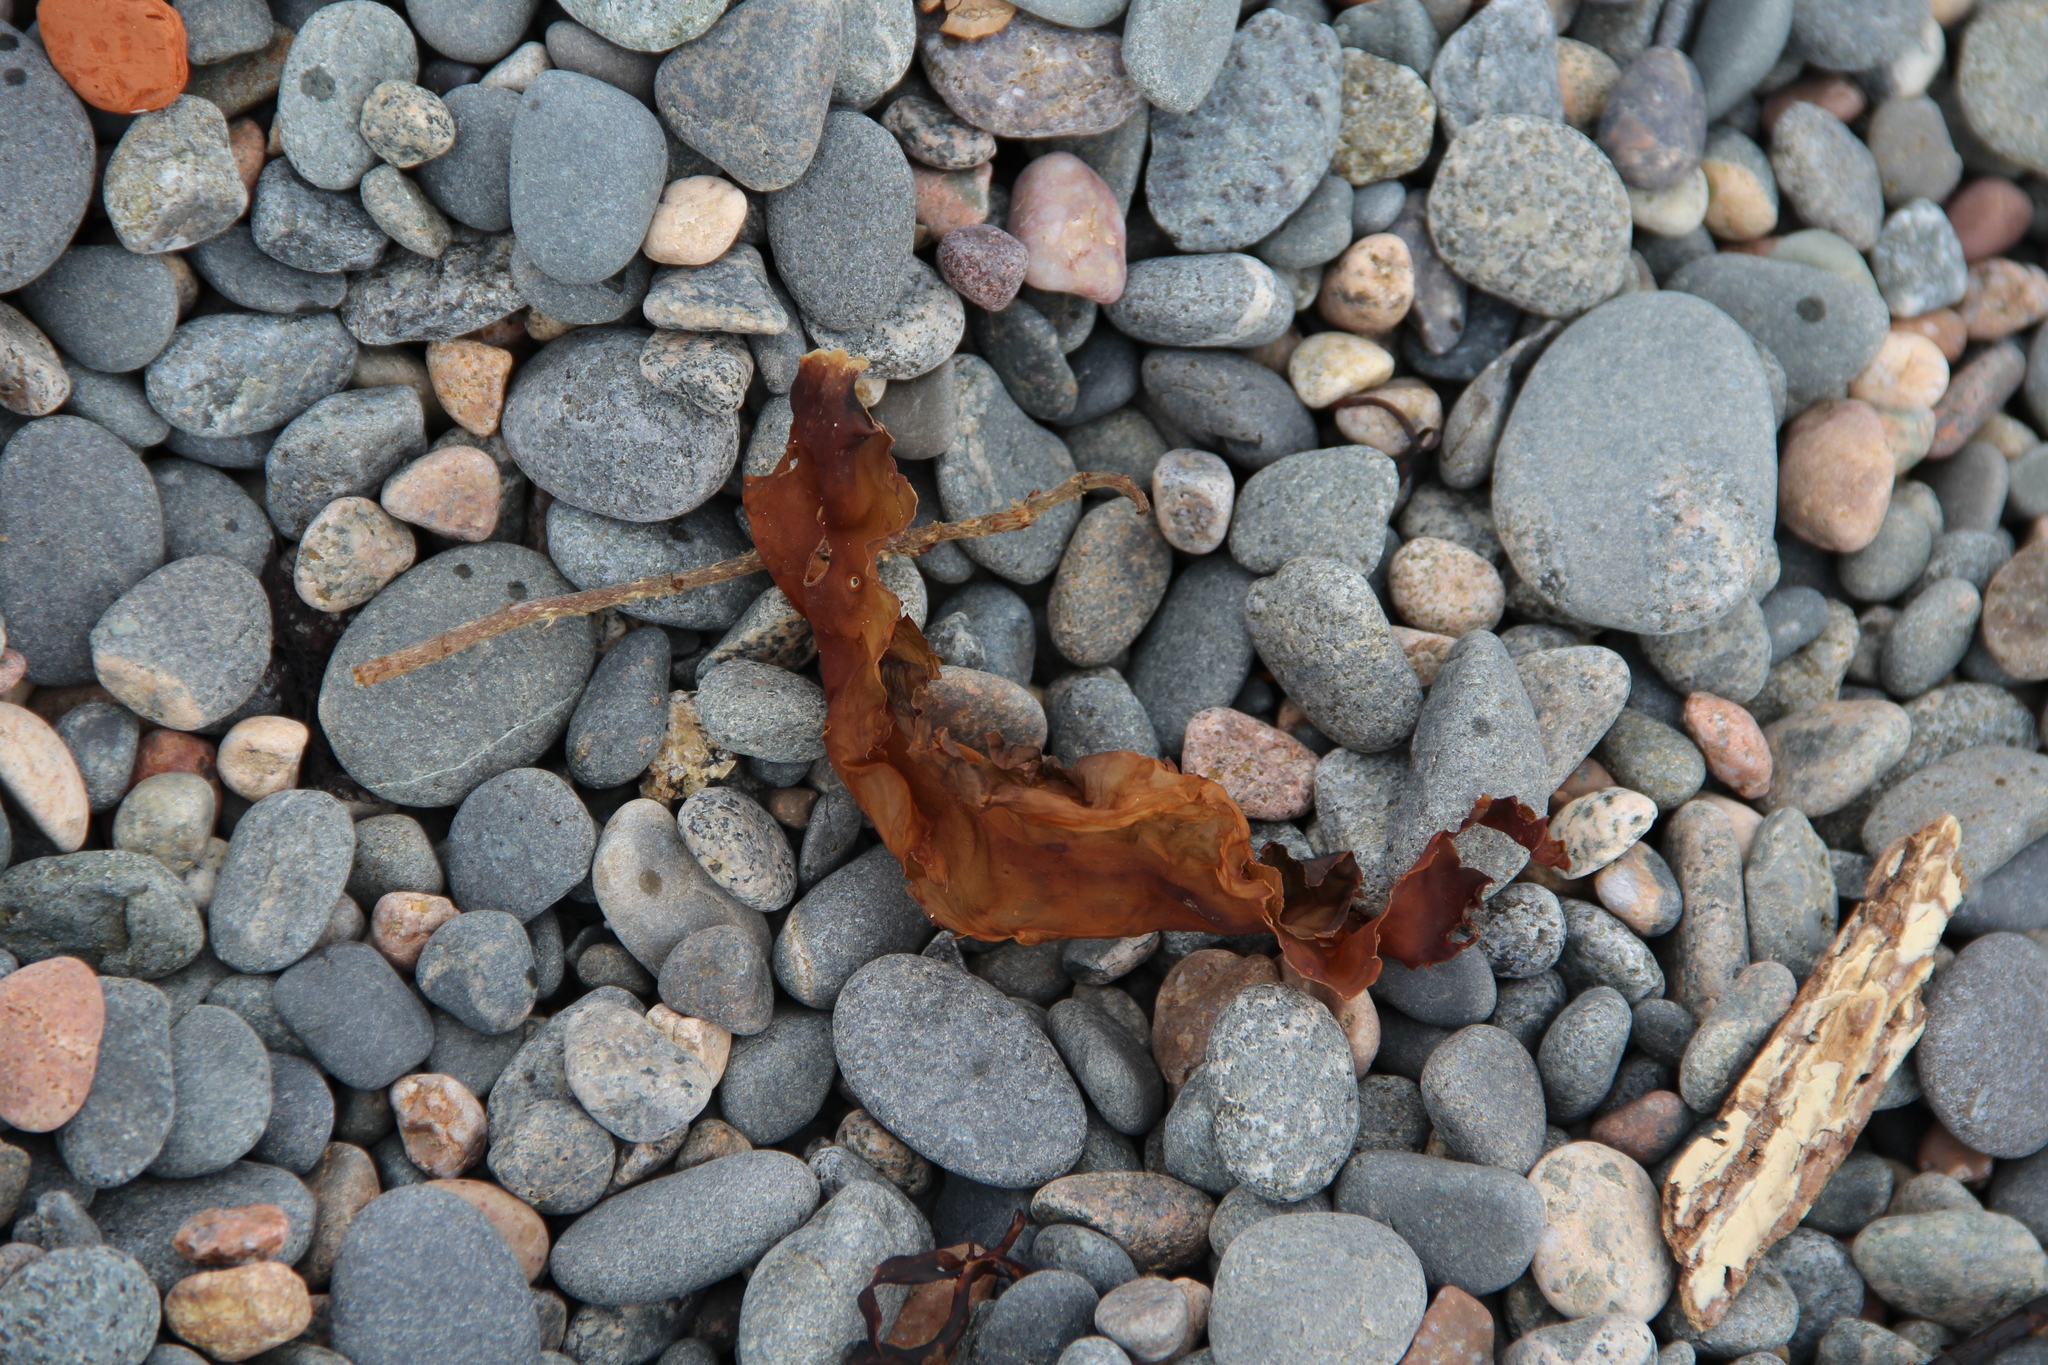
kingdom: Chromista
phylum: Ochrophyta
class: Phaeophyceae
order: Laminariales
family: Laminariaceae
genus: Saccharina
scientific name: Saccharina latissima
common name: Poor man's weather glass
